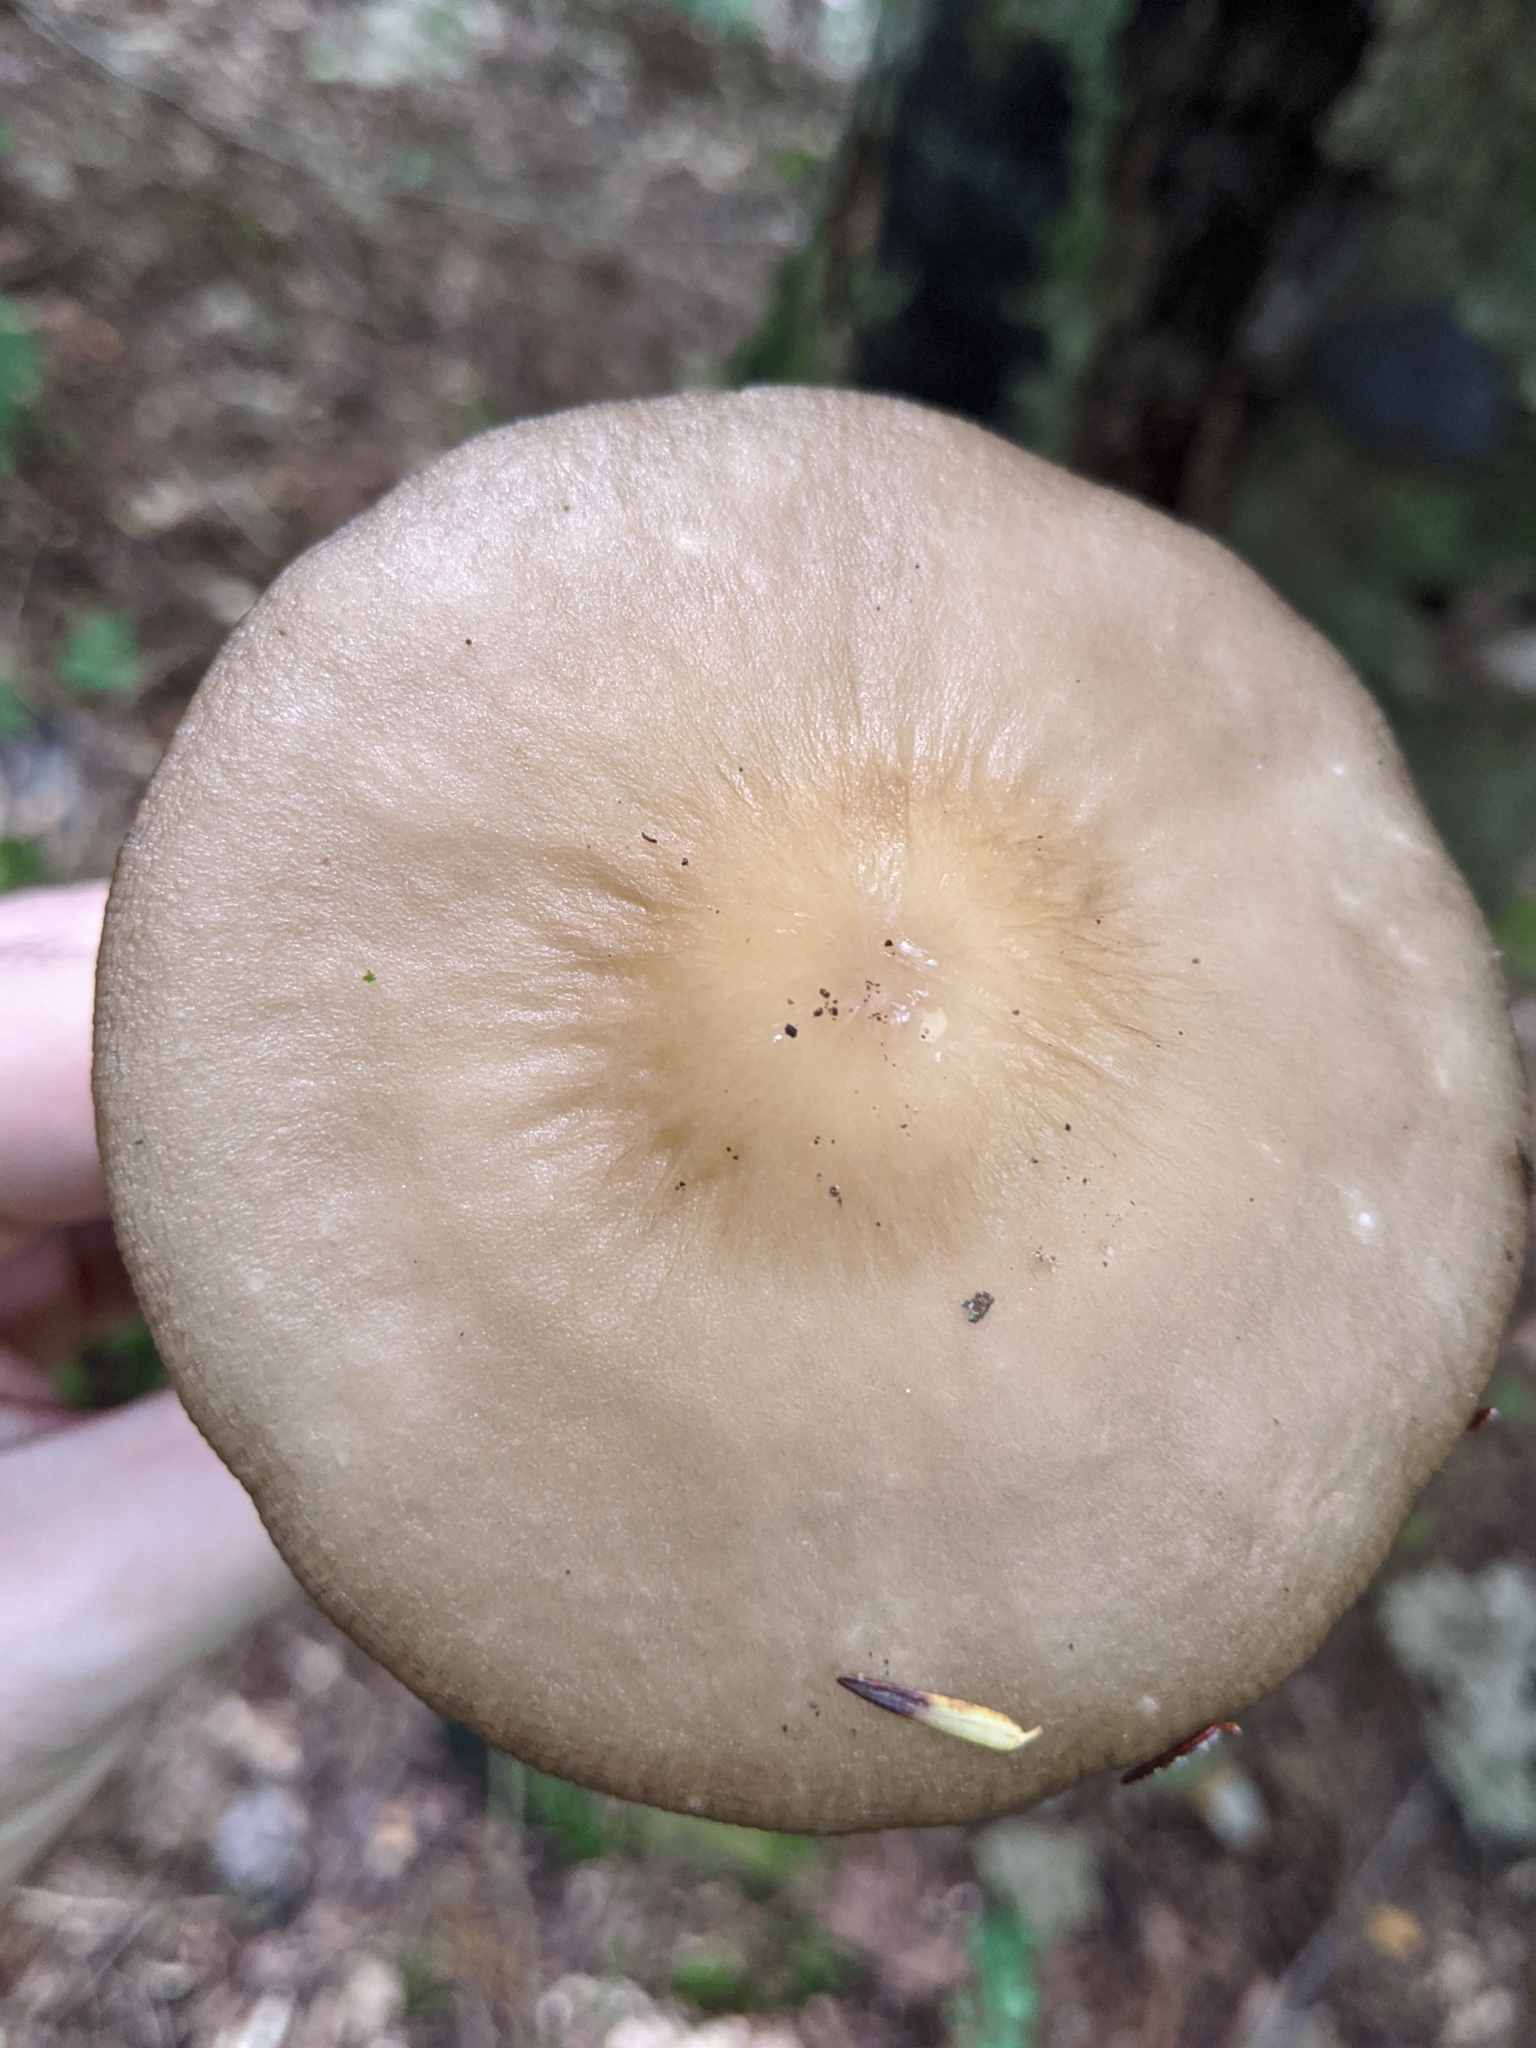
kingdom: Fungi
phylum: Basidiomycota
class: Agaricomycetes
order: Agaricales
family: Physalacriaceae
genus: Hymenopellis
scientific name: Hymenopellis furfuracea
